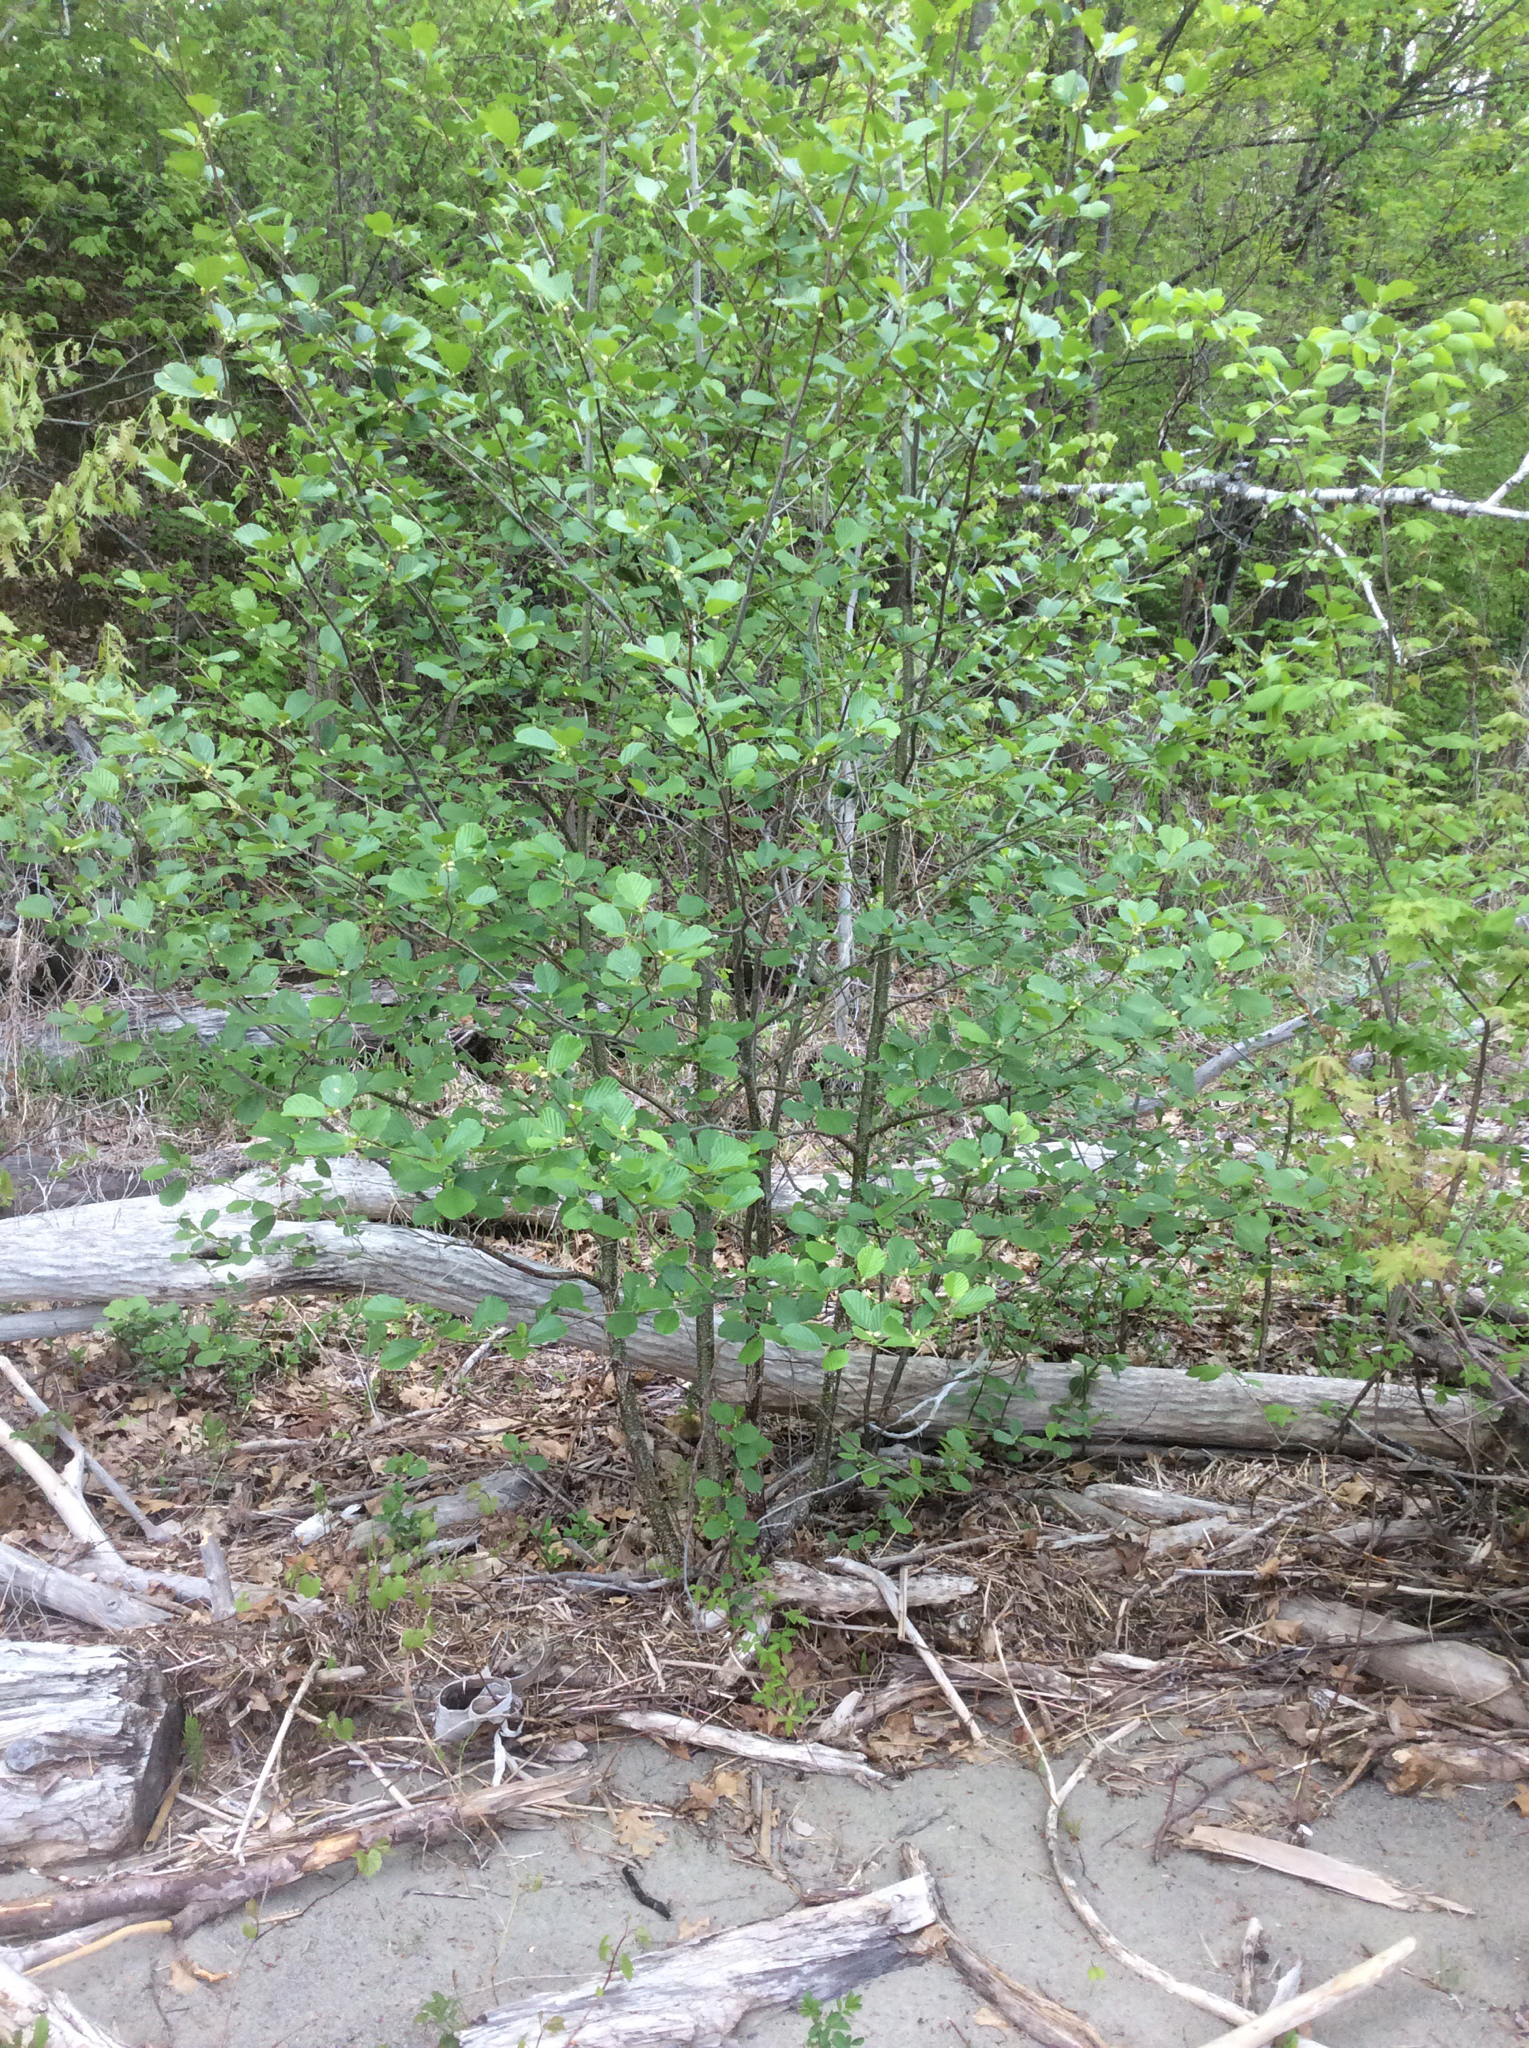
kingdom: Plantae
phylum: Tracheophyta
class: Magnoliopsida
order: Fagales
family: Betulaceae
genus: Alnus
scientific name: Alnus glutinosa
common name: Black alder
